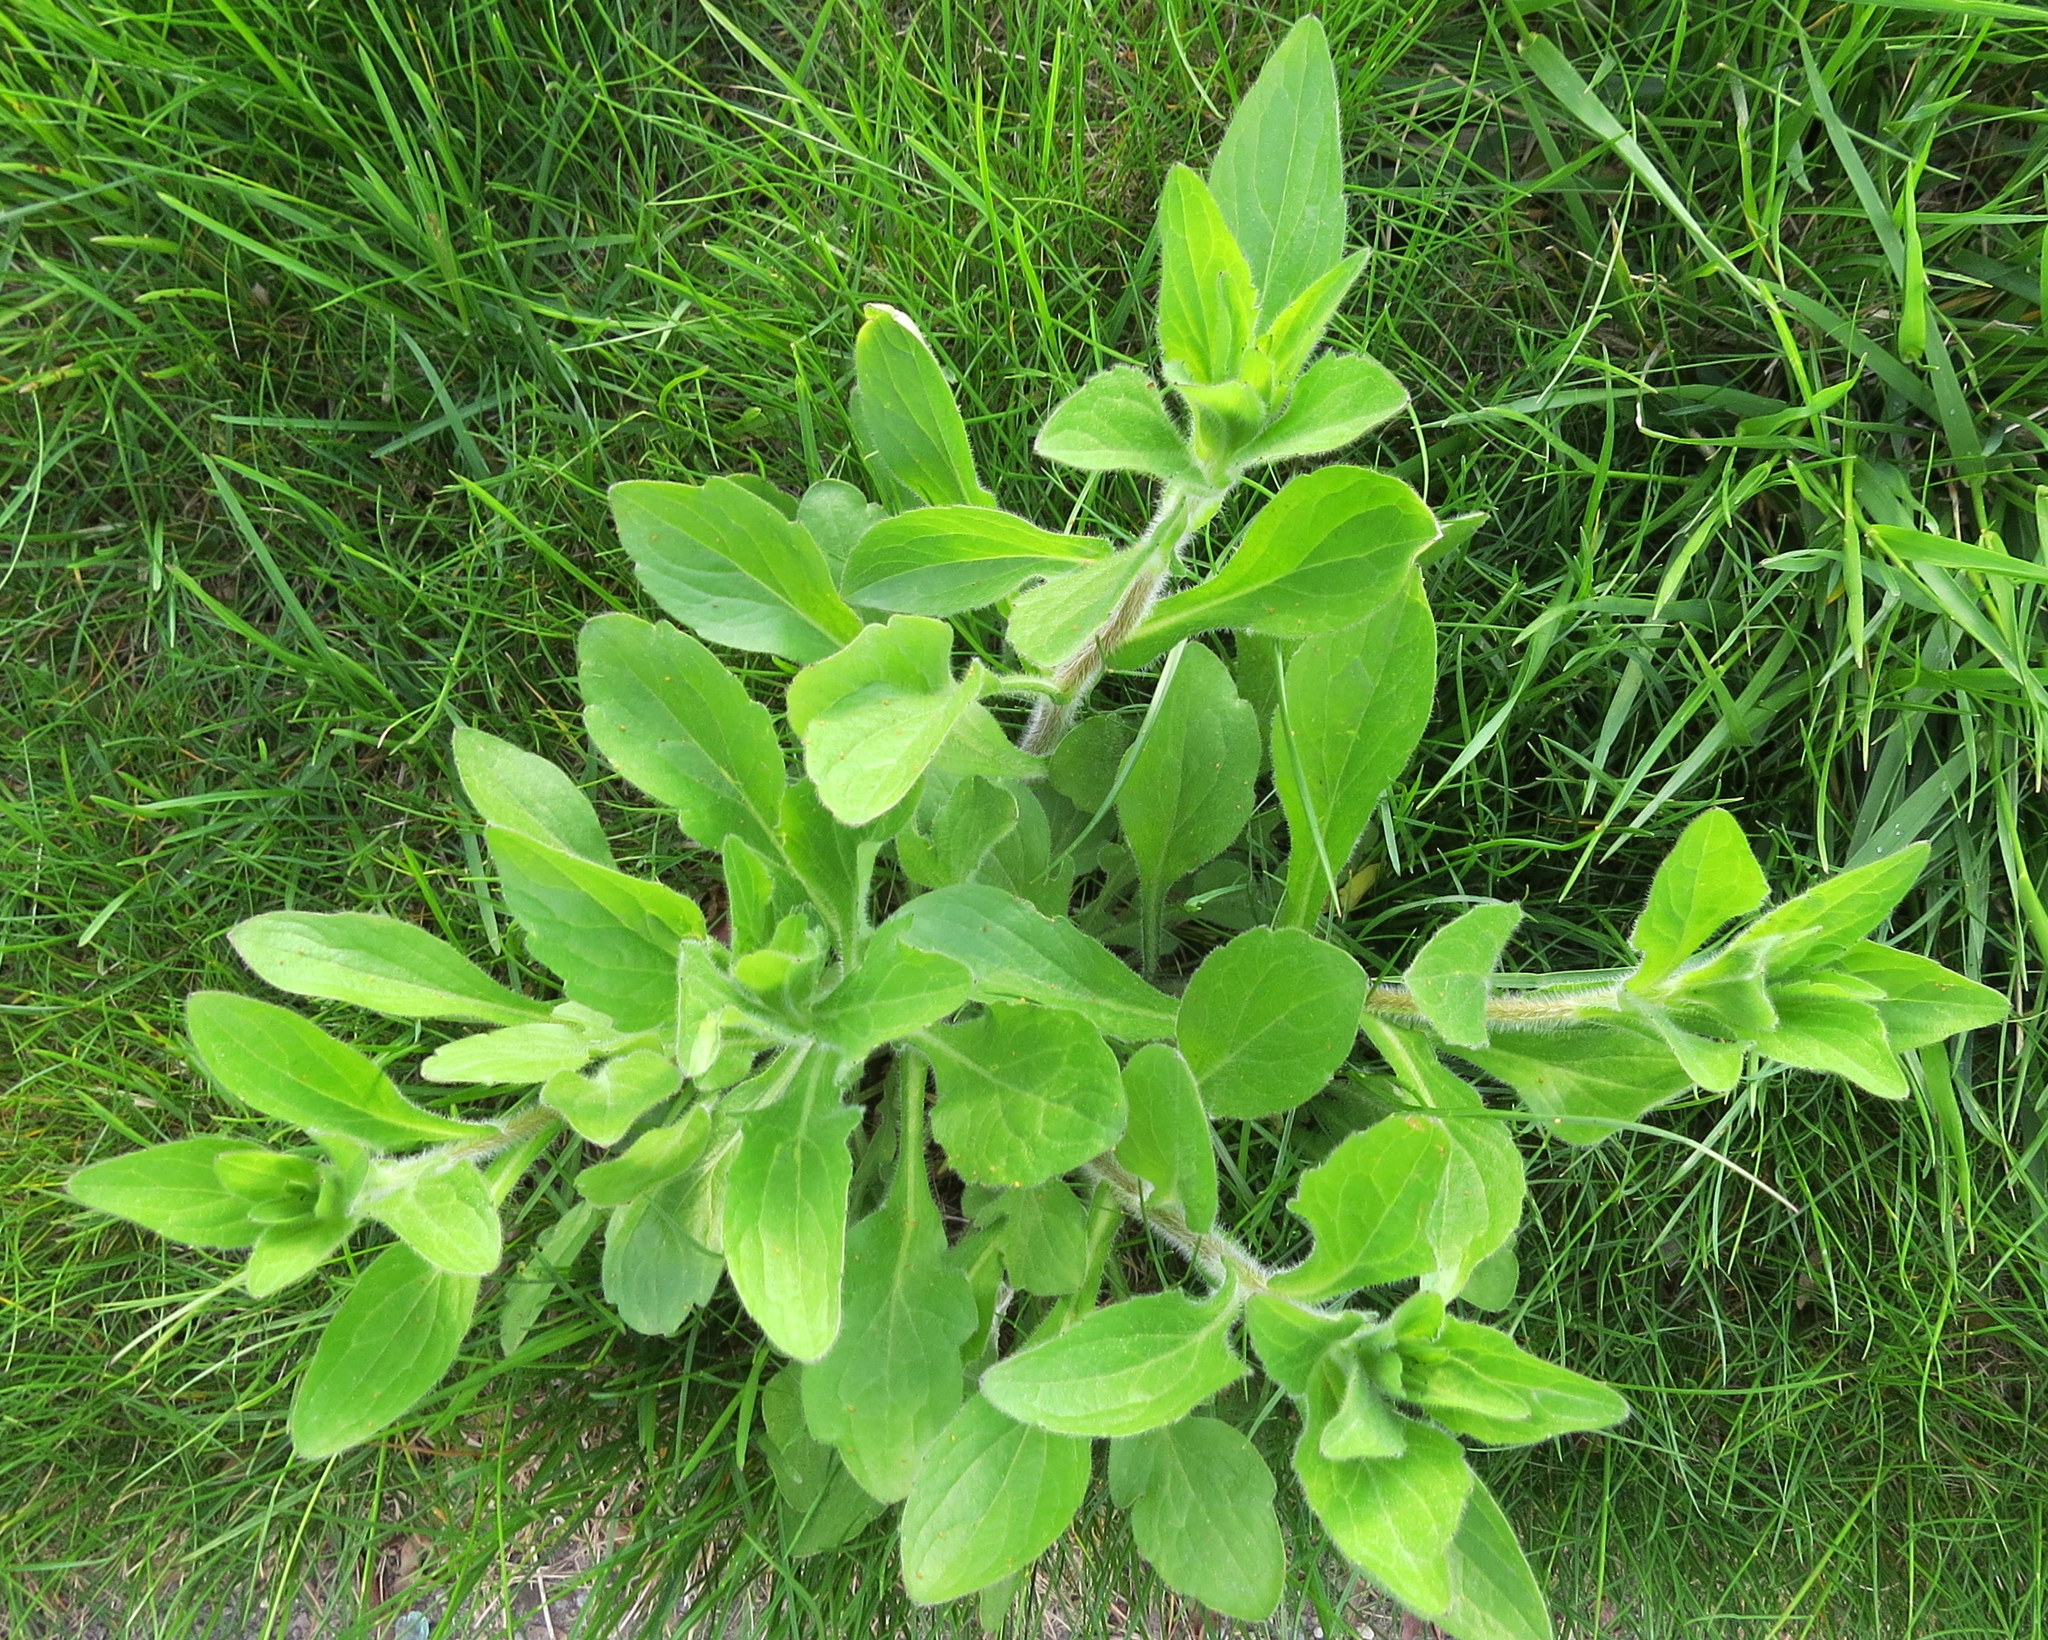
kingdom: Plantae
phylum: Tracheophyta
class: Magnoliopsida
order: Asterales
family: Asteraceae
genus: Erigeron
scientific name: Erigeron philadelphicus
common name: Robin's-plantain
